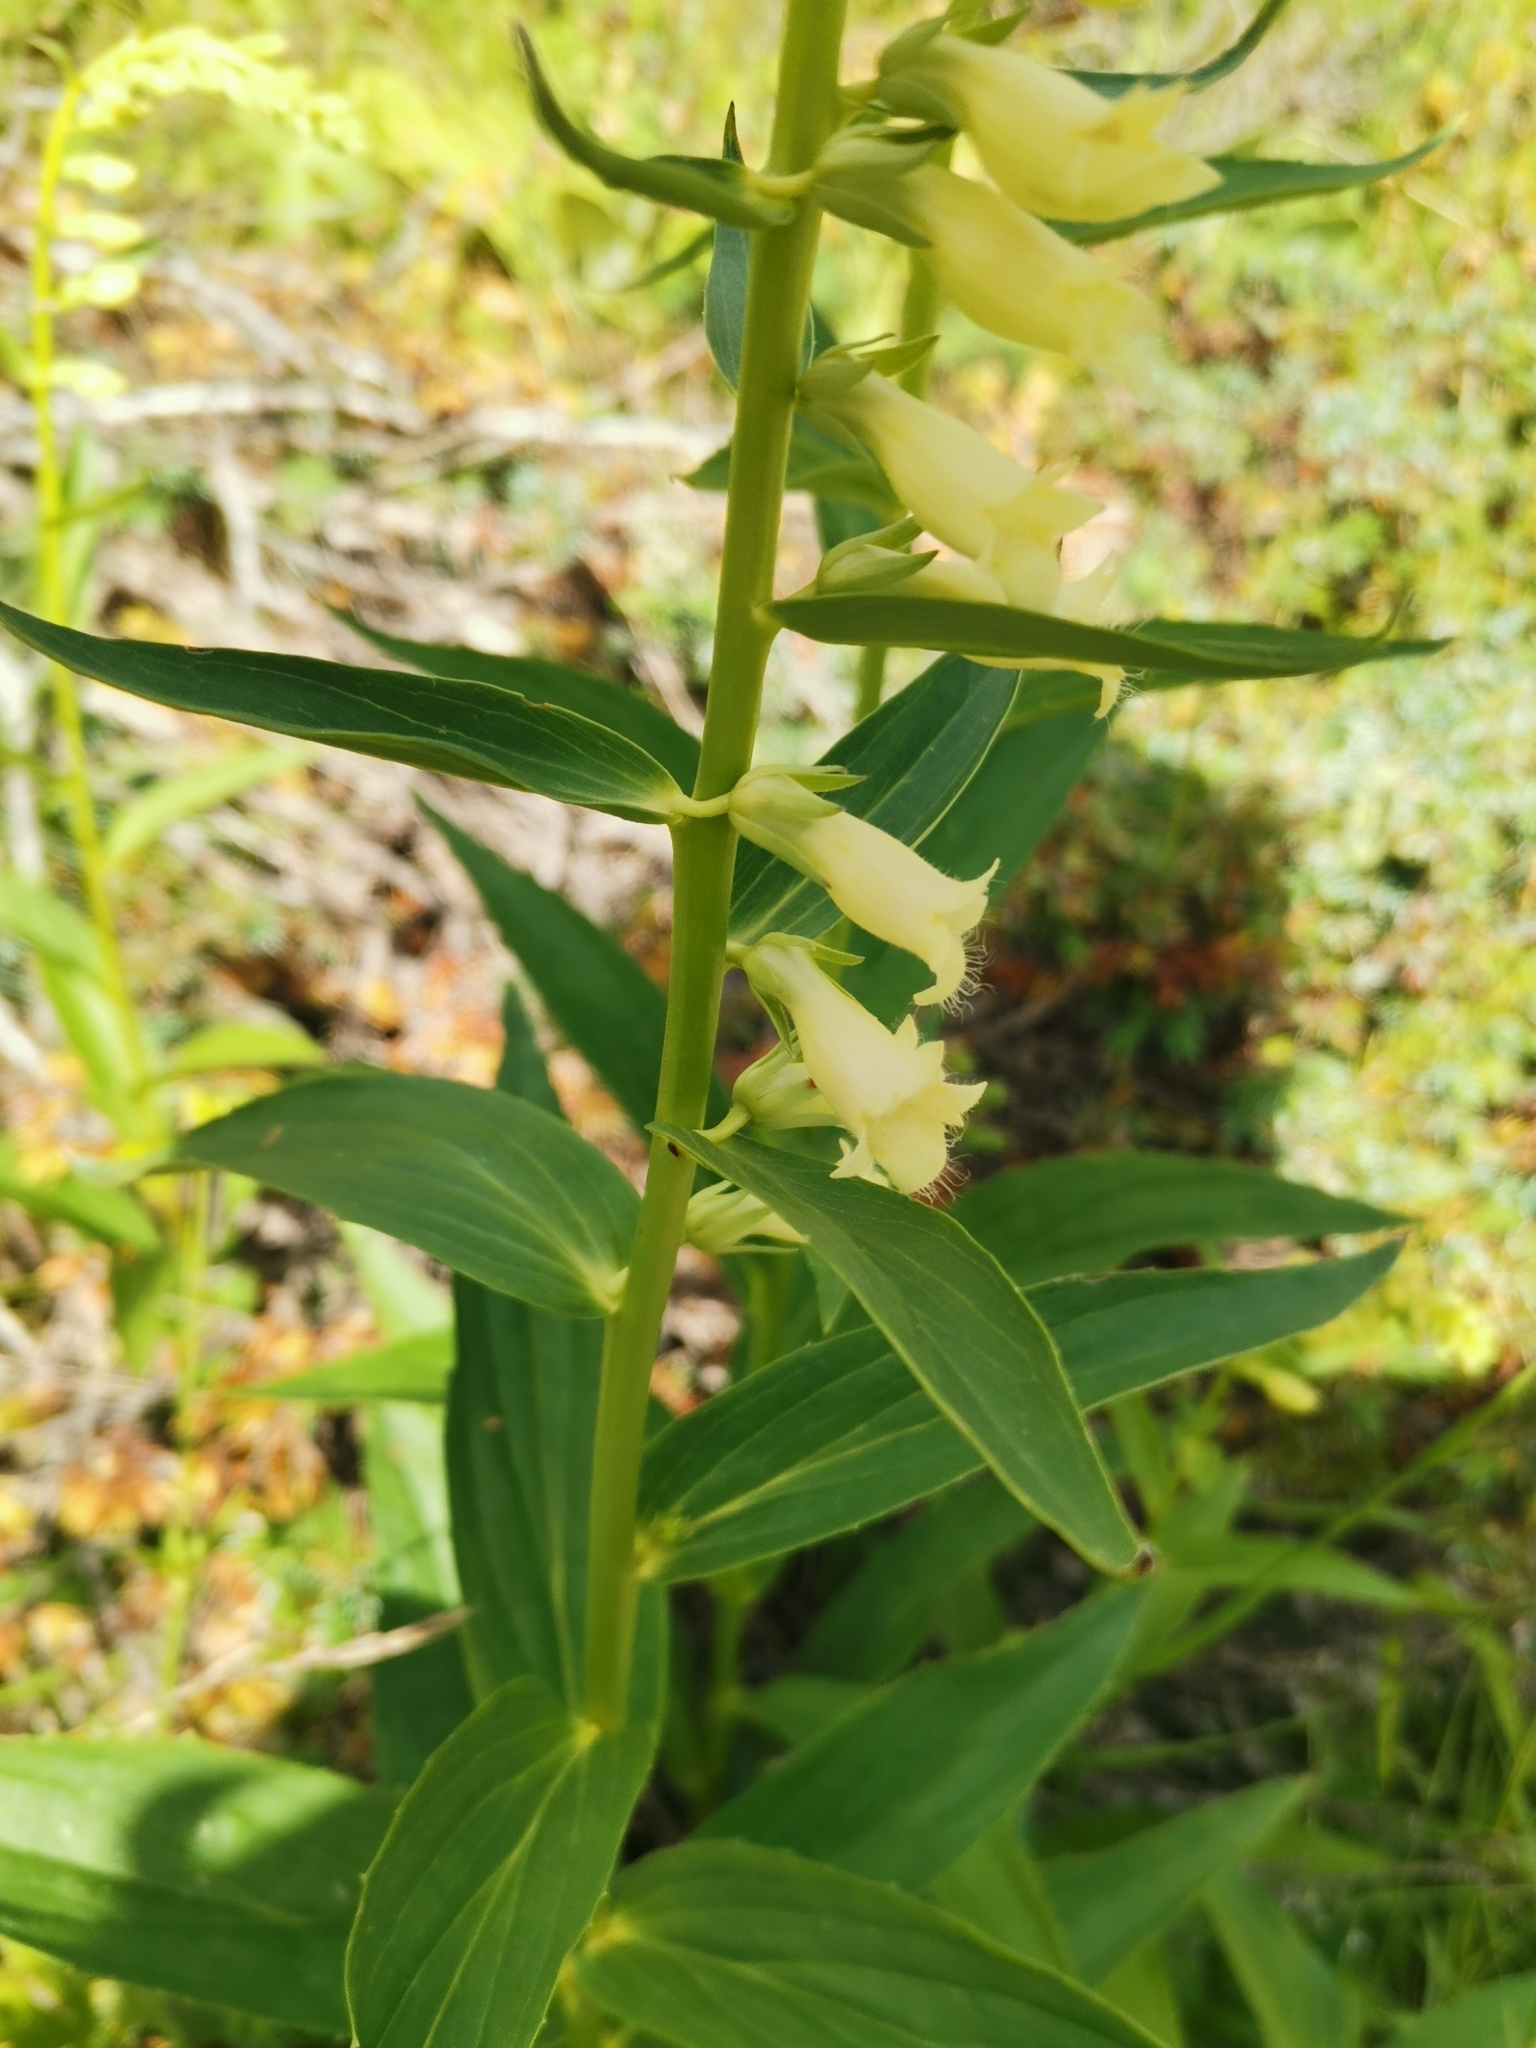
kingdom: Plantae
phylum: Tracheophyta
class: Magnoliopsida
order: Lamiales
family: Plantaginaceae
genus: Digitalis
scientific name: Digitalis lutea
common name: Straw foxglove
